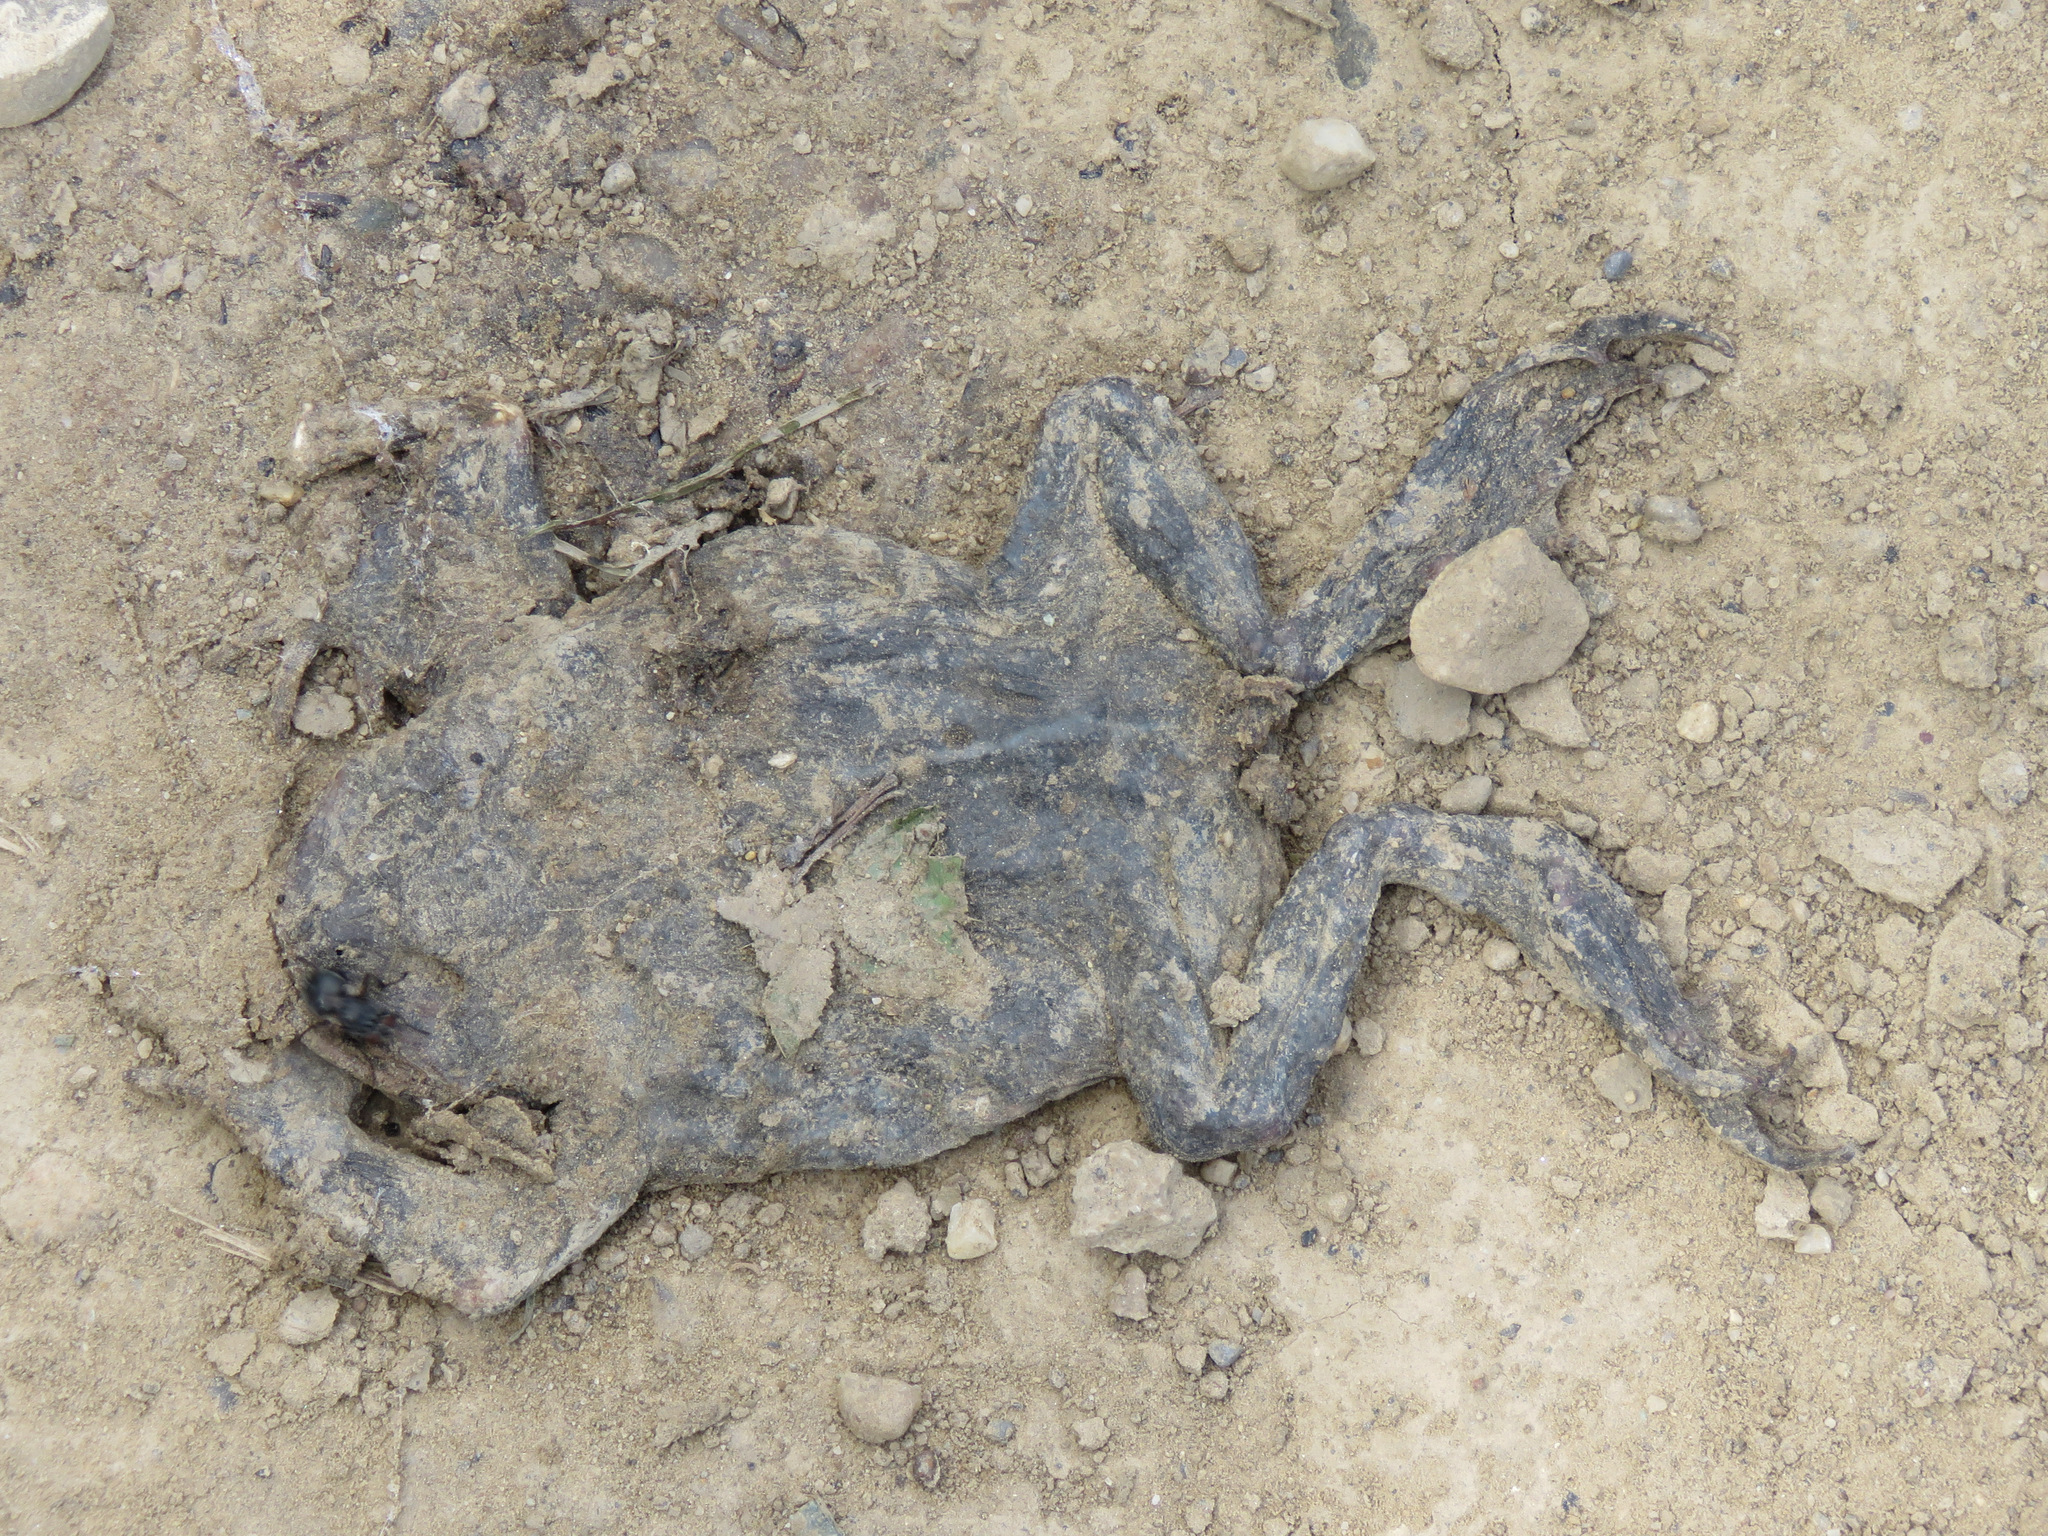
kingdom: Animalia
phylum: Chordata
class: Amphibia
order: Anura
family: Bufonidae
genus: Anaxyrus
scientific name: Anaxyrus boreas
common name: Western toad
